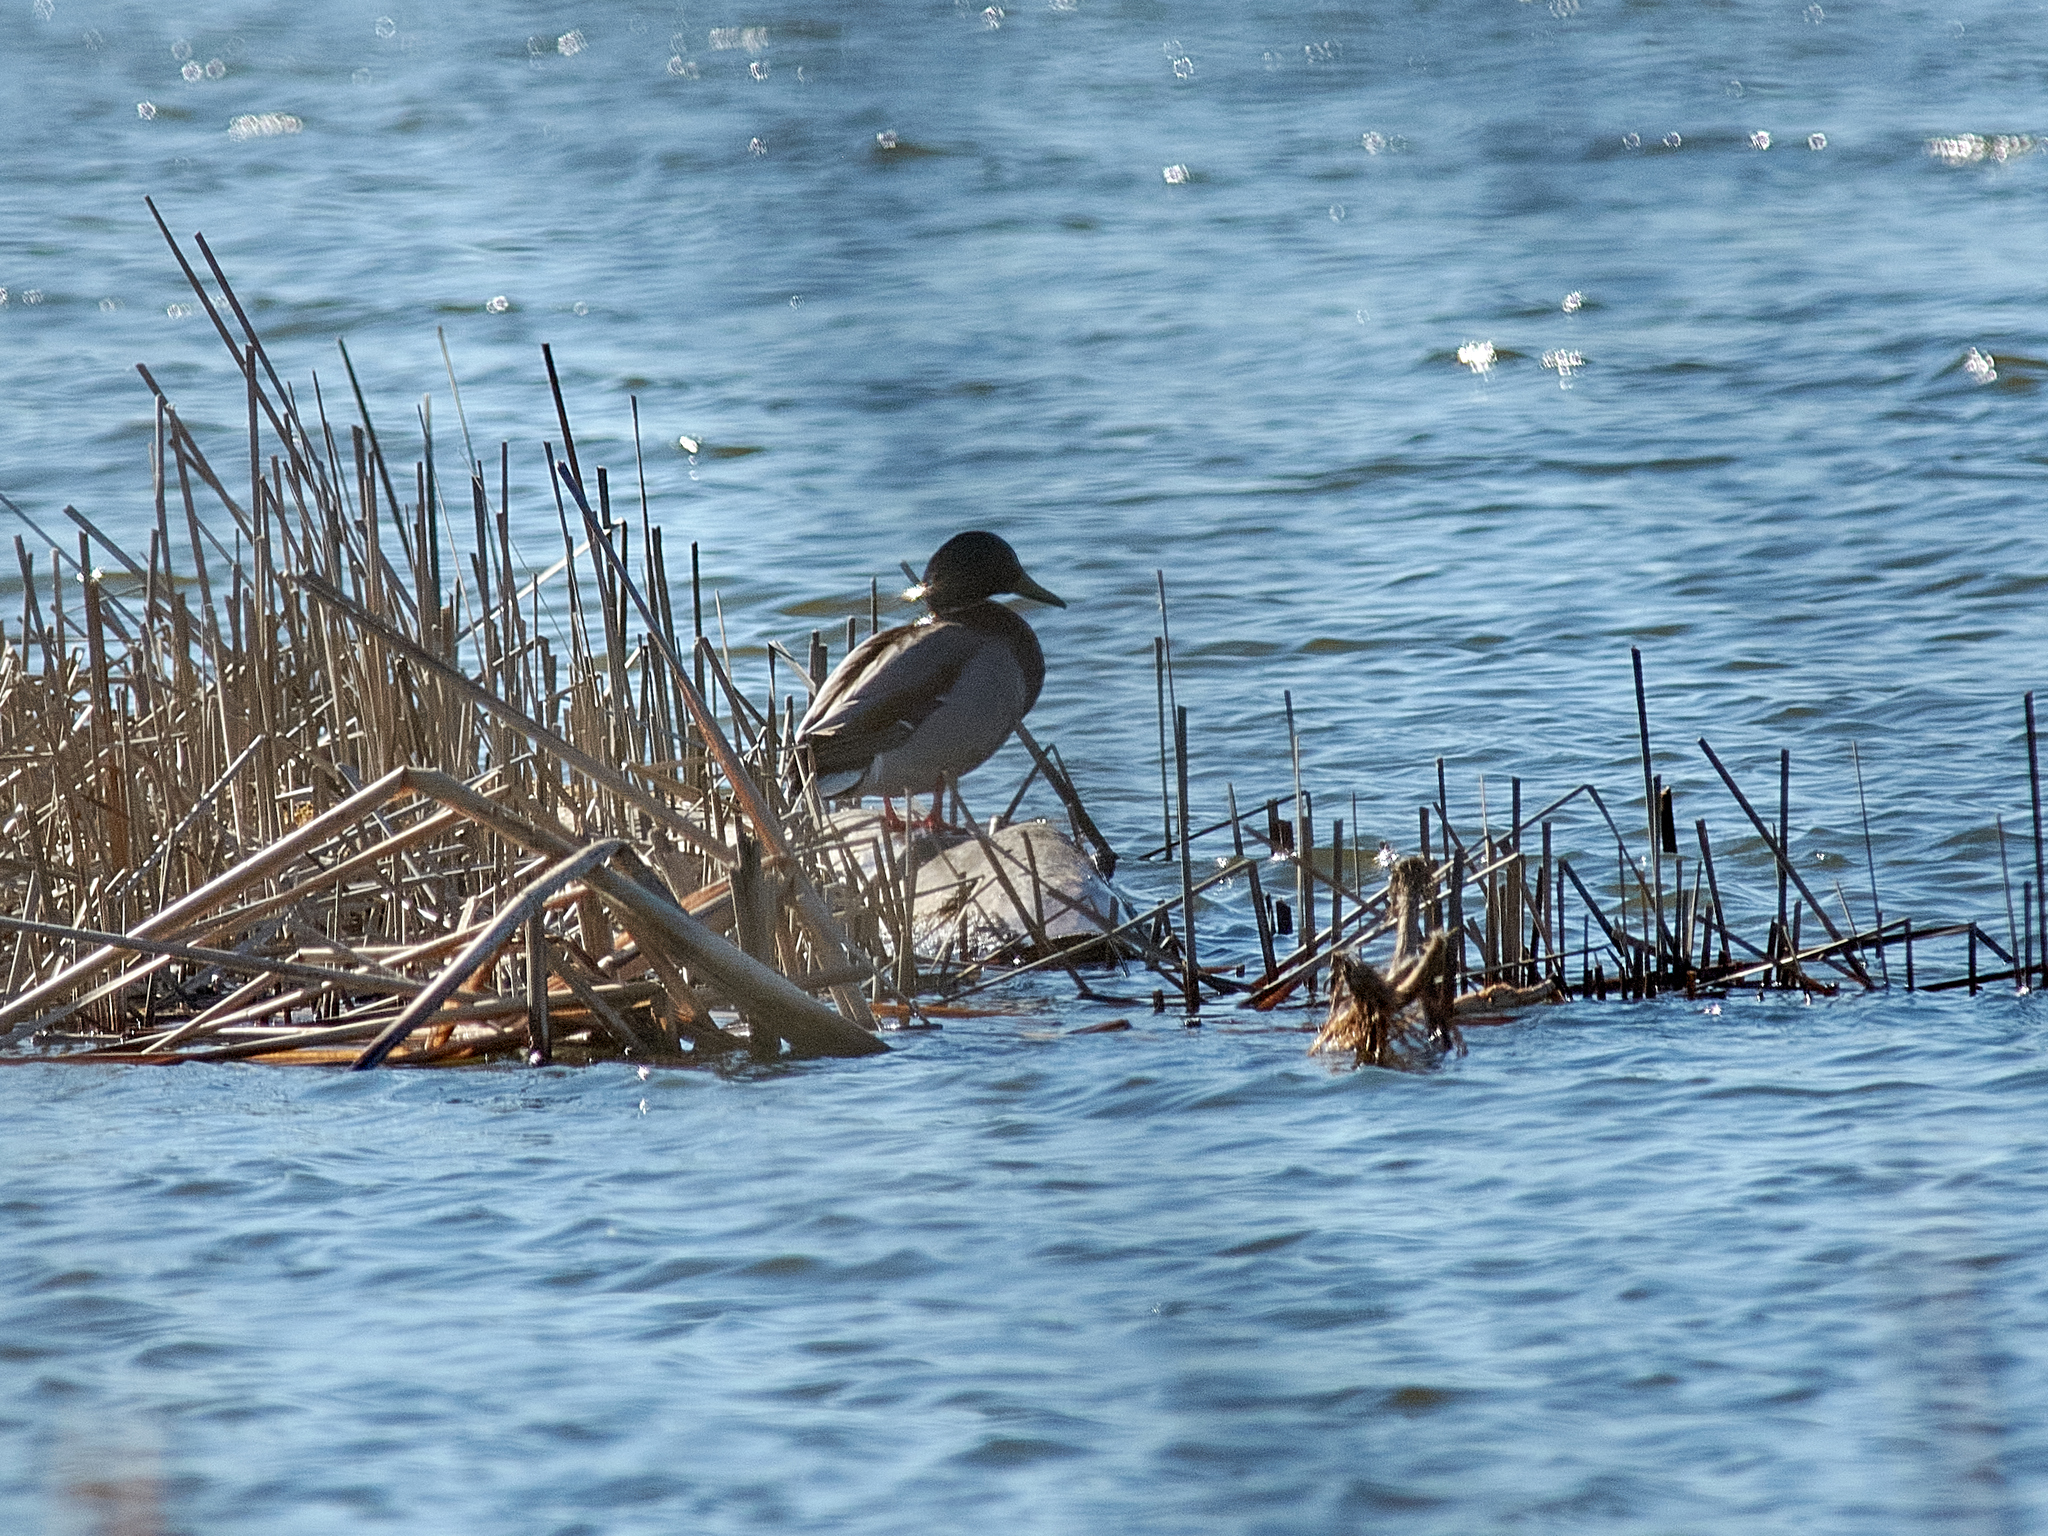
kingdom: Animalia
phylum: Chordata
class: Aves
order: Anseriformes
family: Anatidae
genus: Anas
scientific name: Anas platyrhynchos
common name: Mallard
